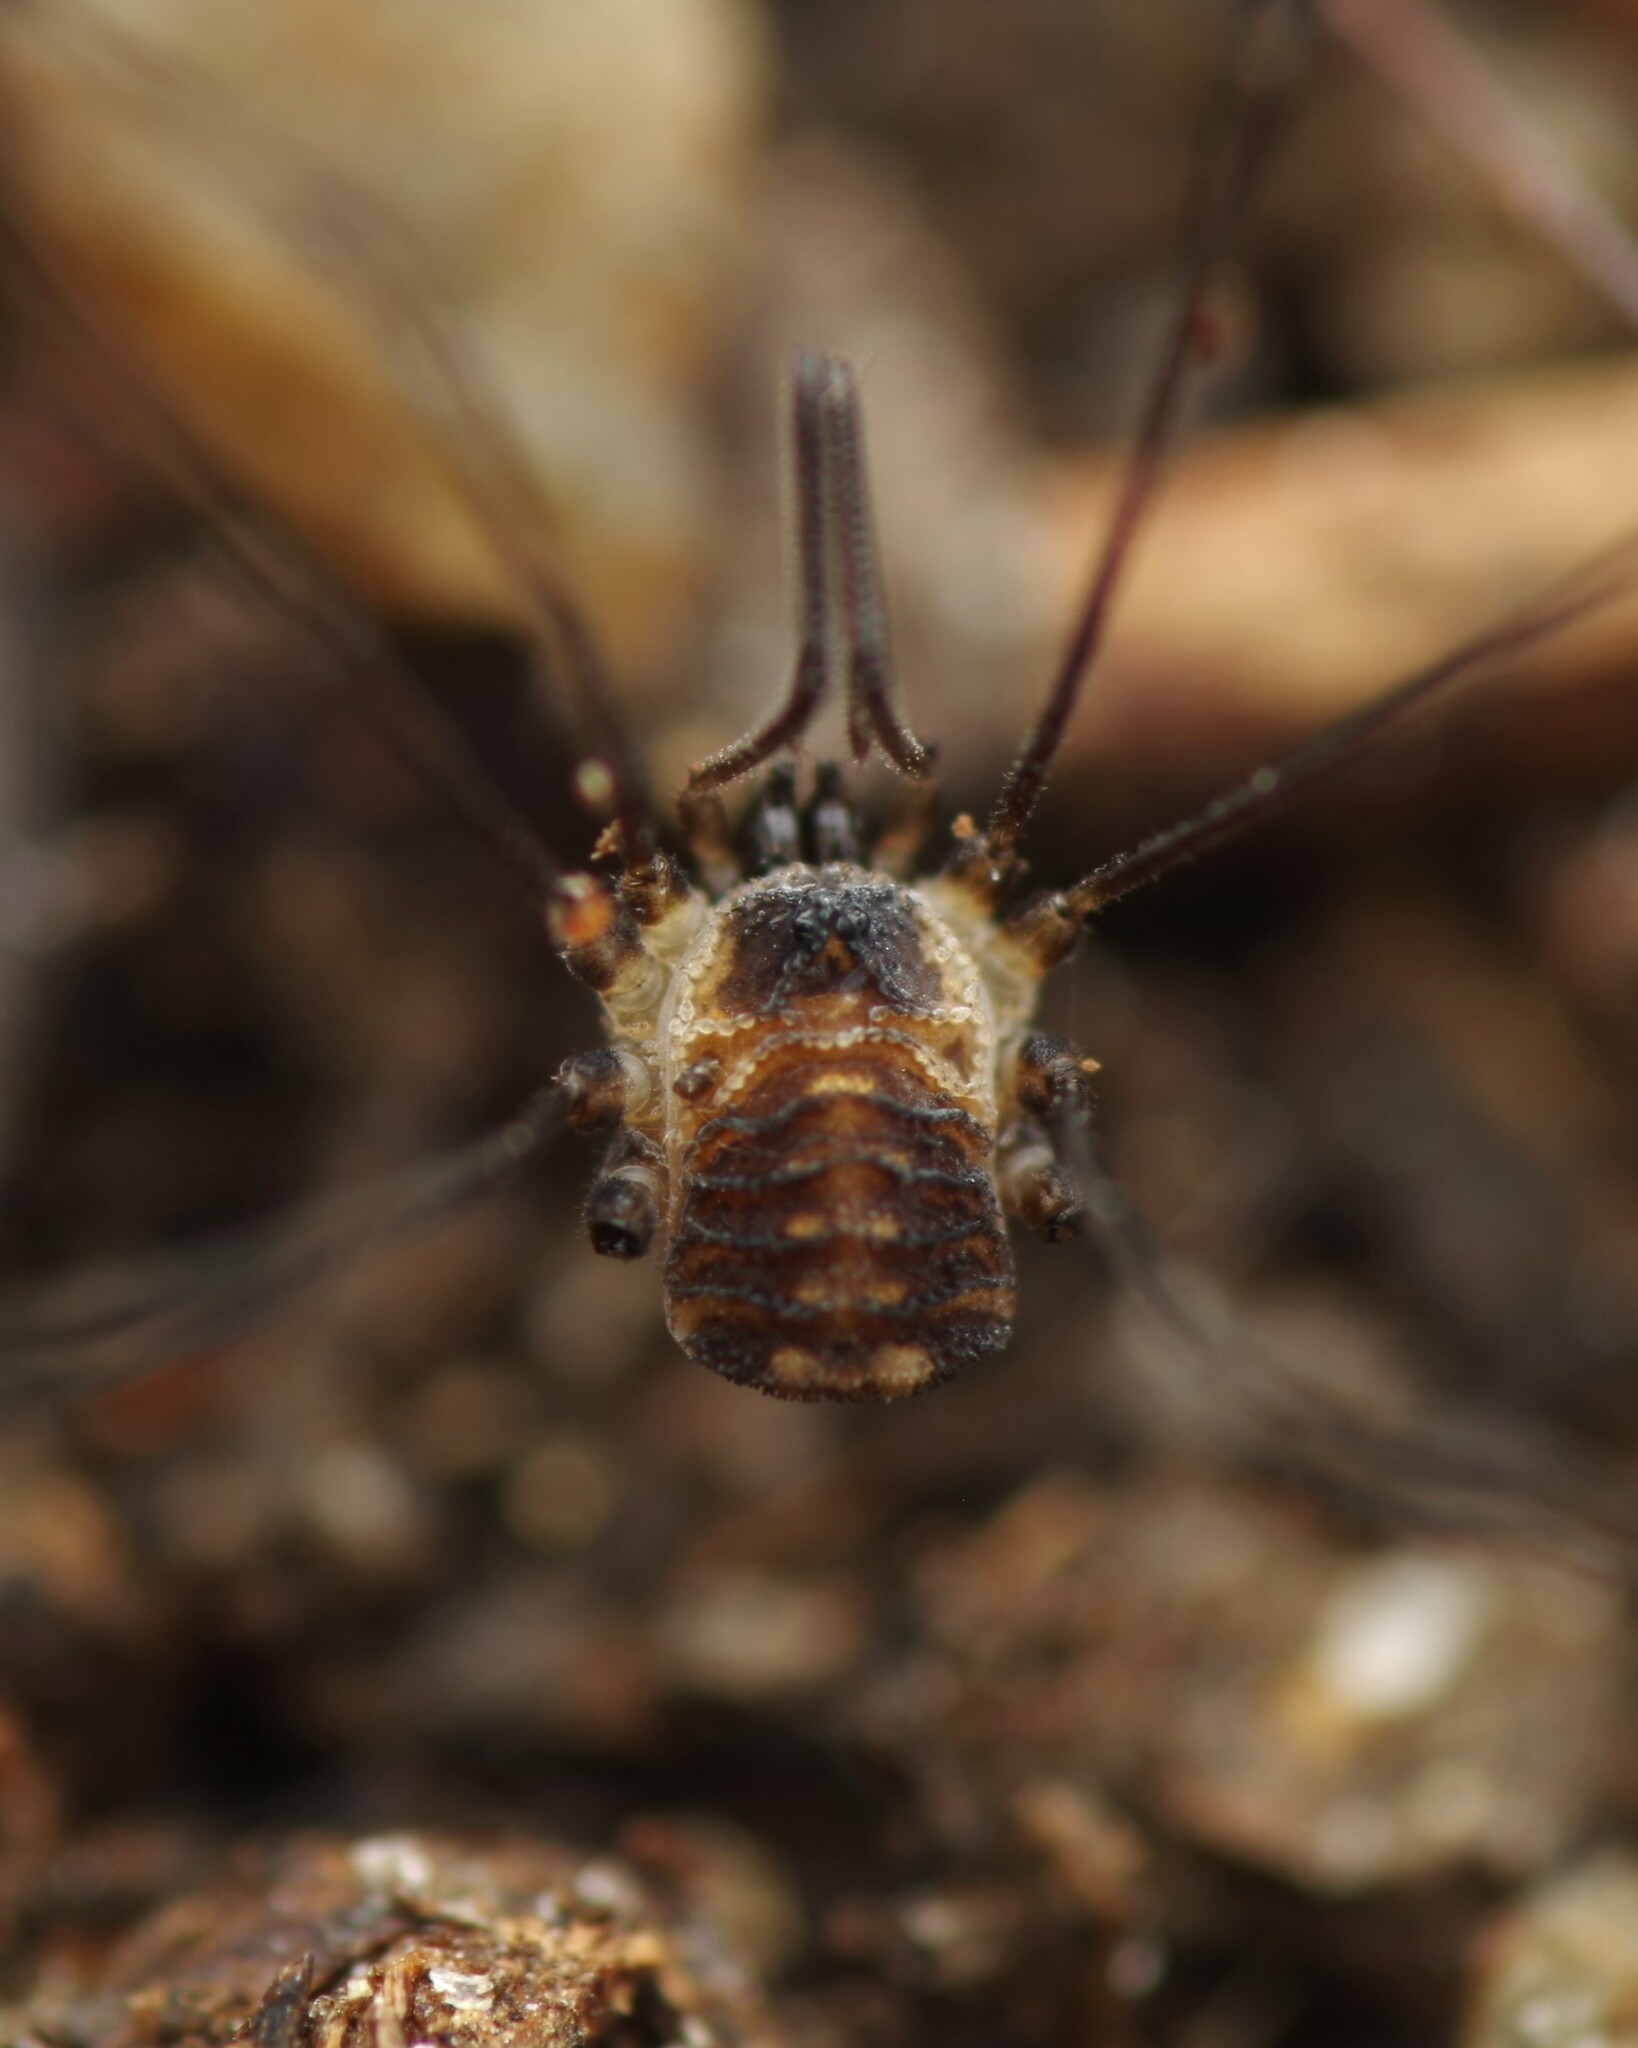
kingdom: Animalia
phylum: Arthropoda
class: Arachnida
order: Opiliones
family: Nemastomatidae
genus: Mitostoma
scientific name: Mitostoma chrysomelas
